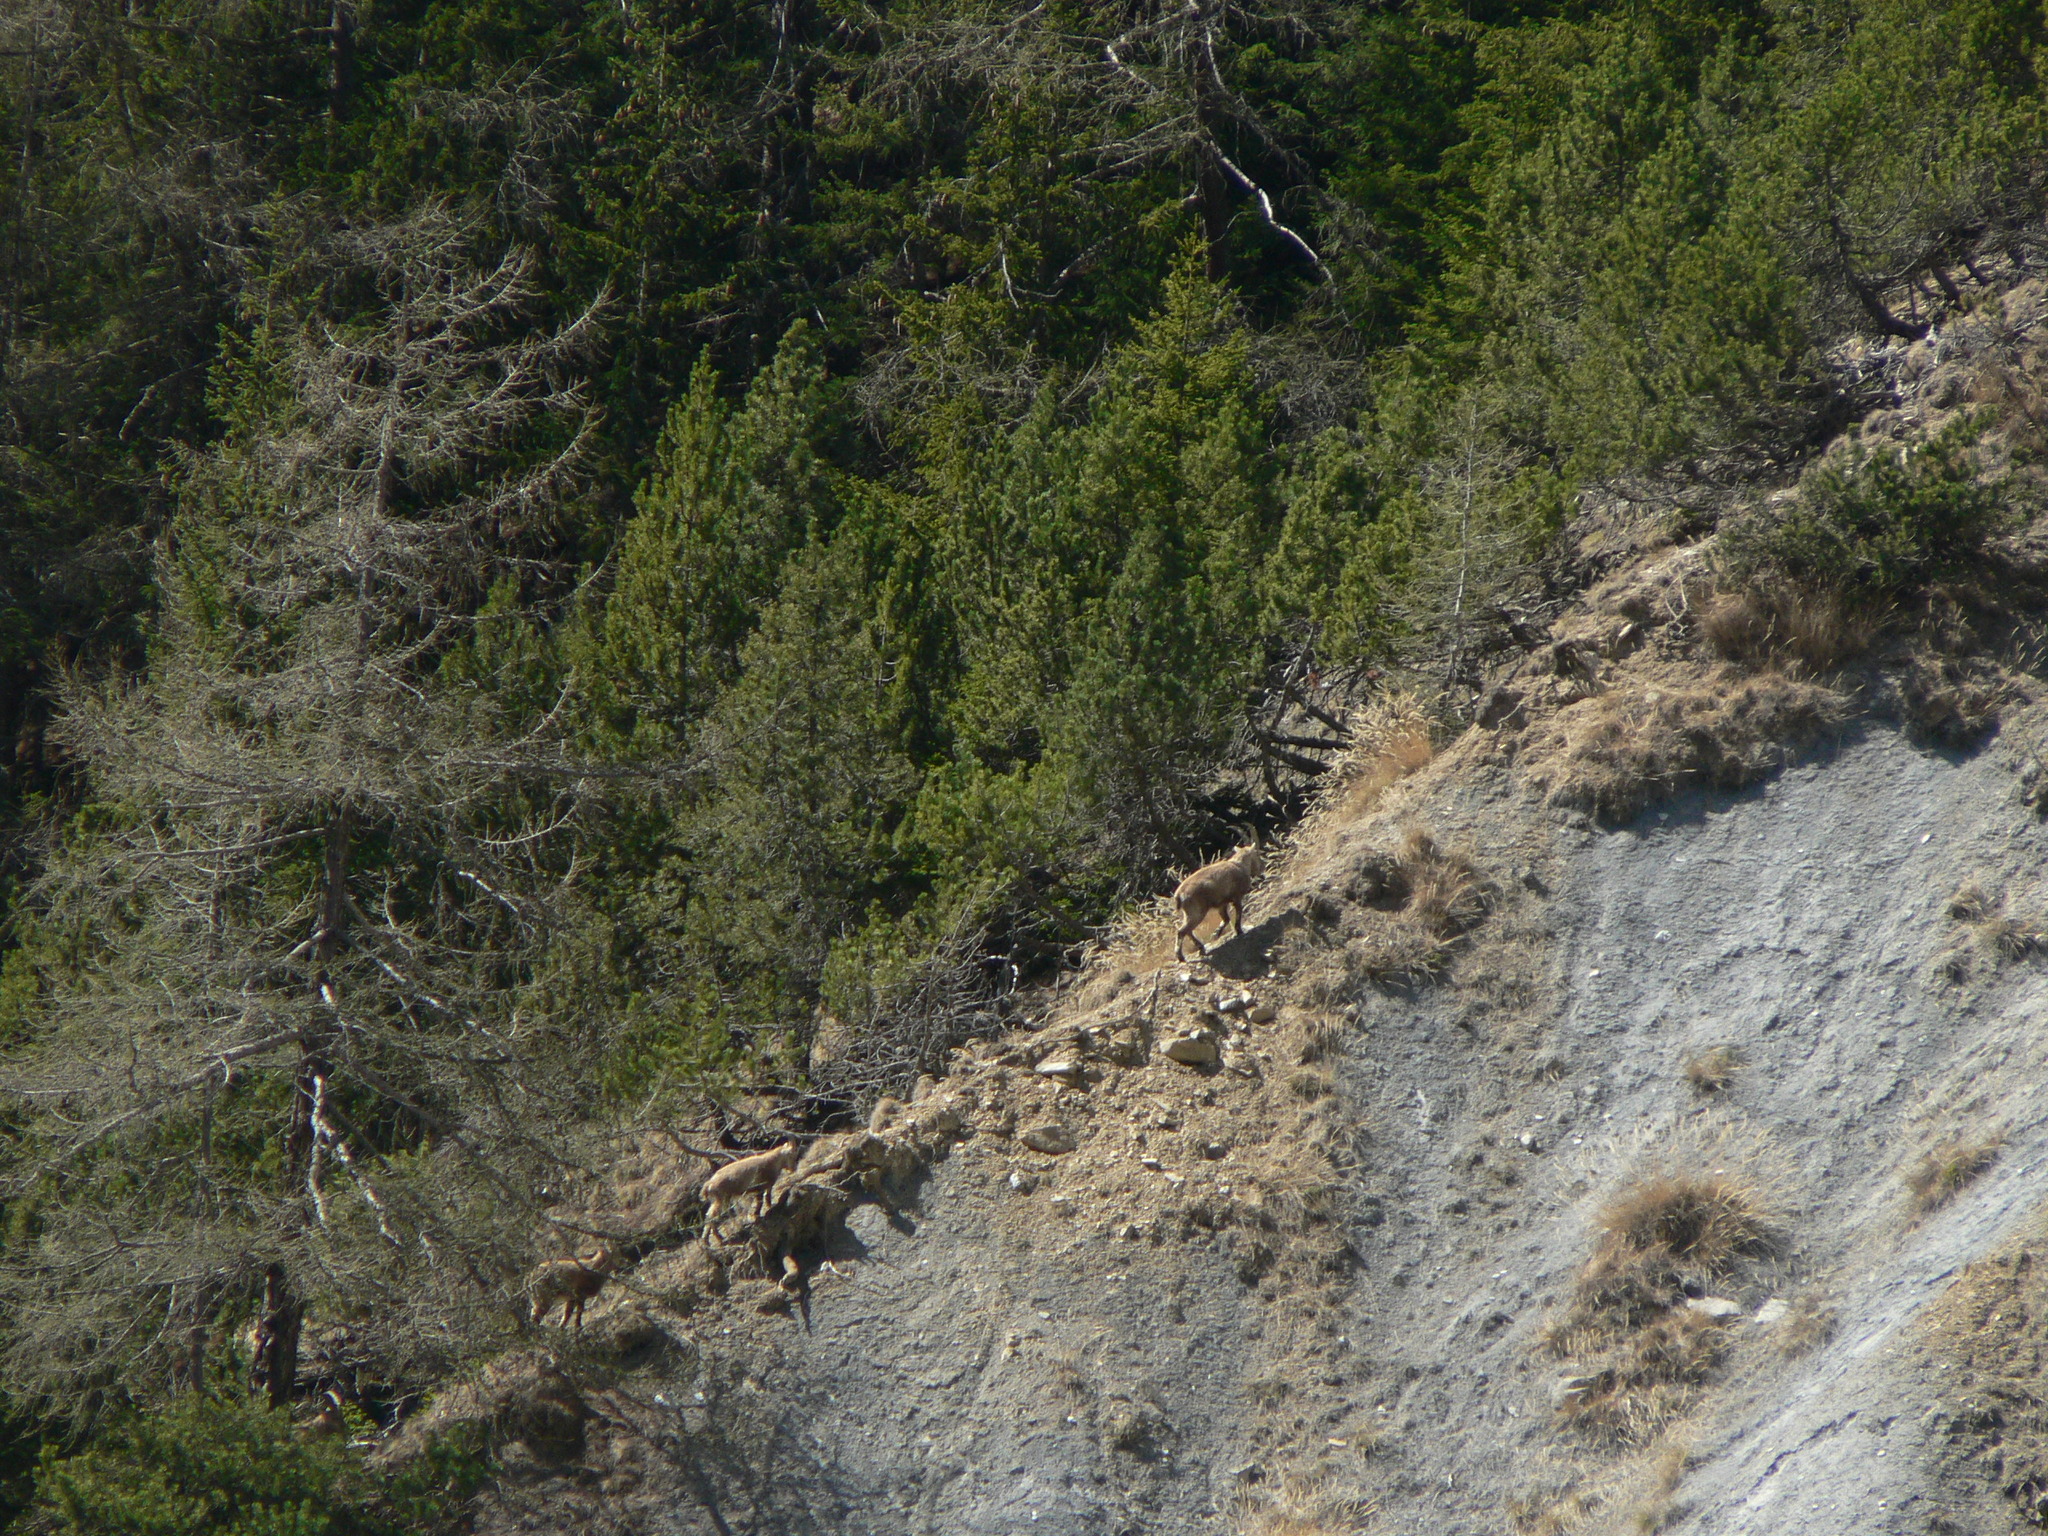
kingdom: Animalia
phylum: Chordata
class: Mammalia
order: Artiodactyla
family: Bovidae
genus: Capra
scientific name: Capra ibex
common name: Alpine ibex
